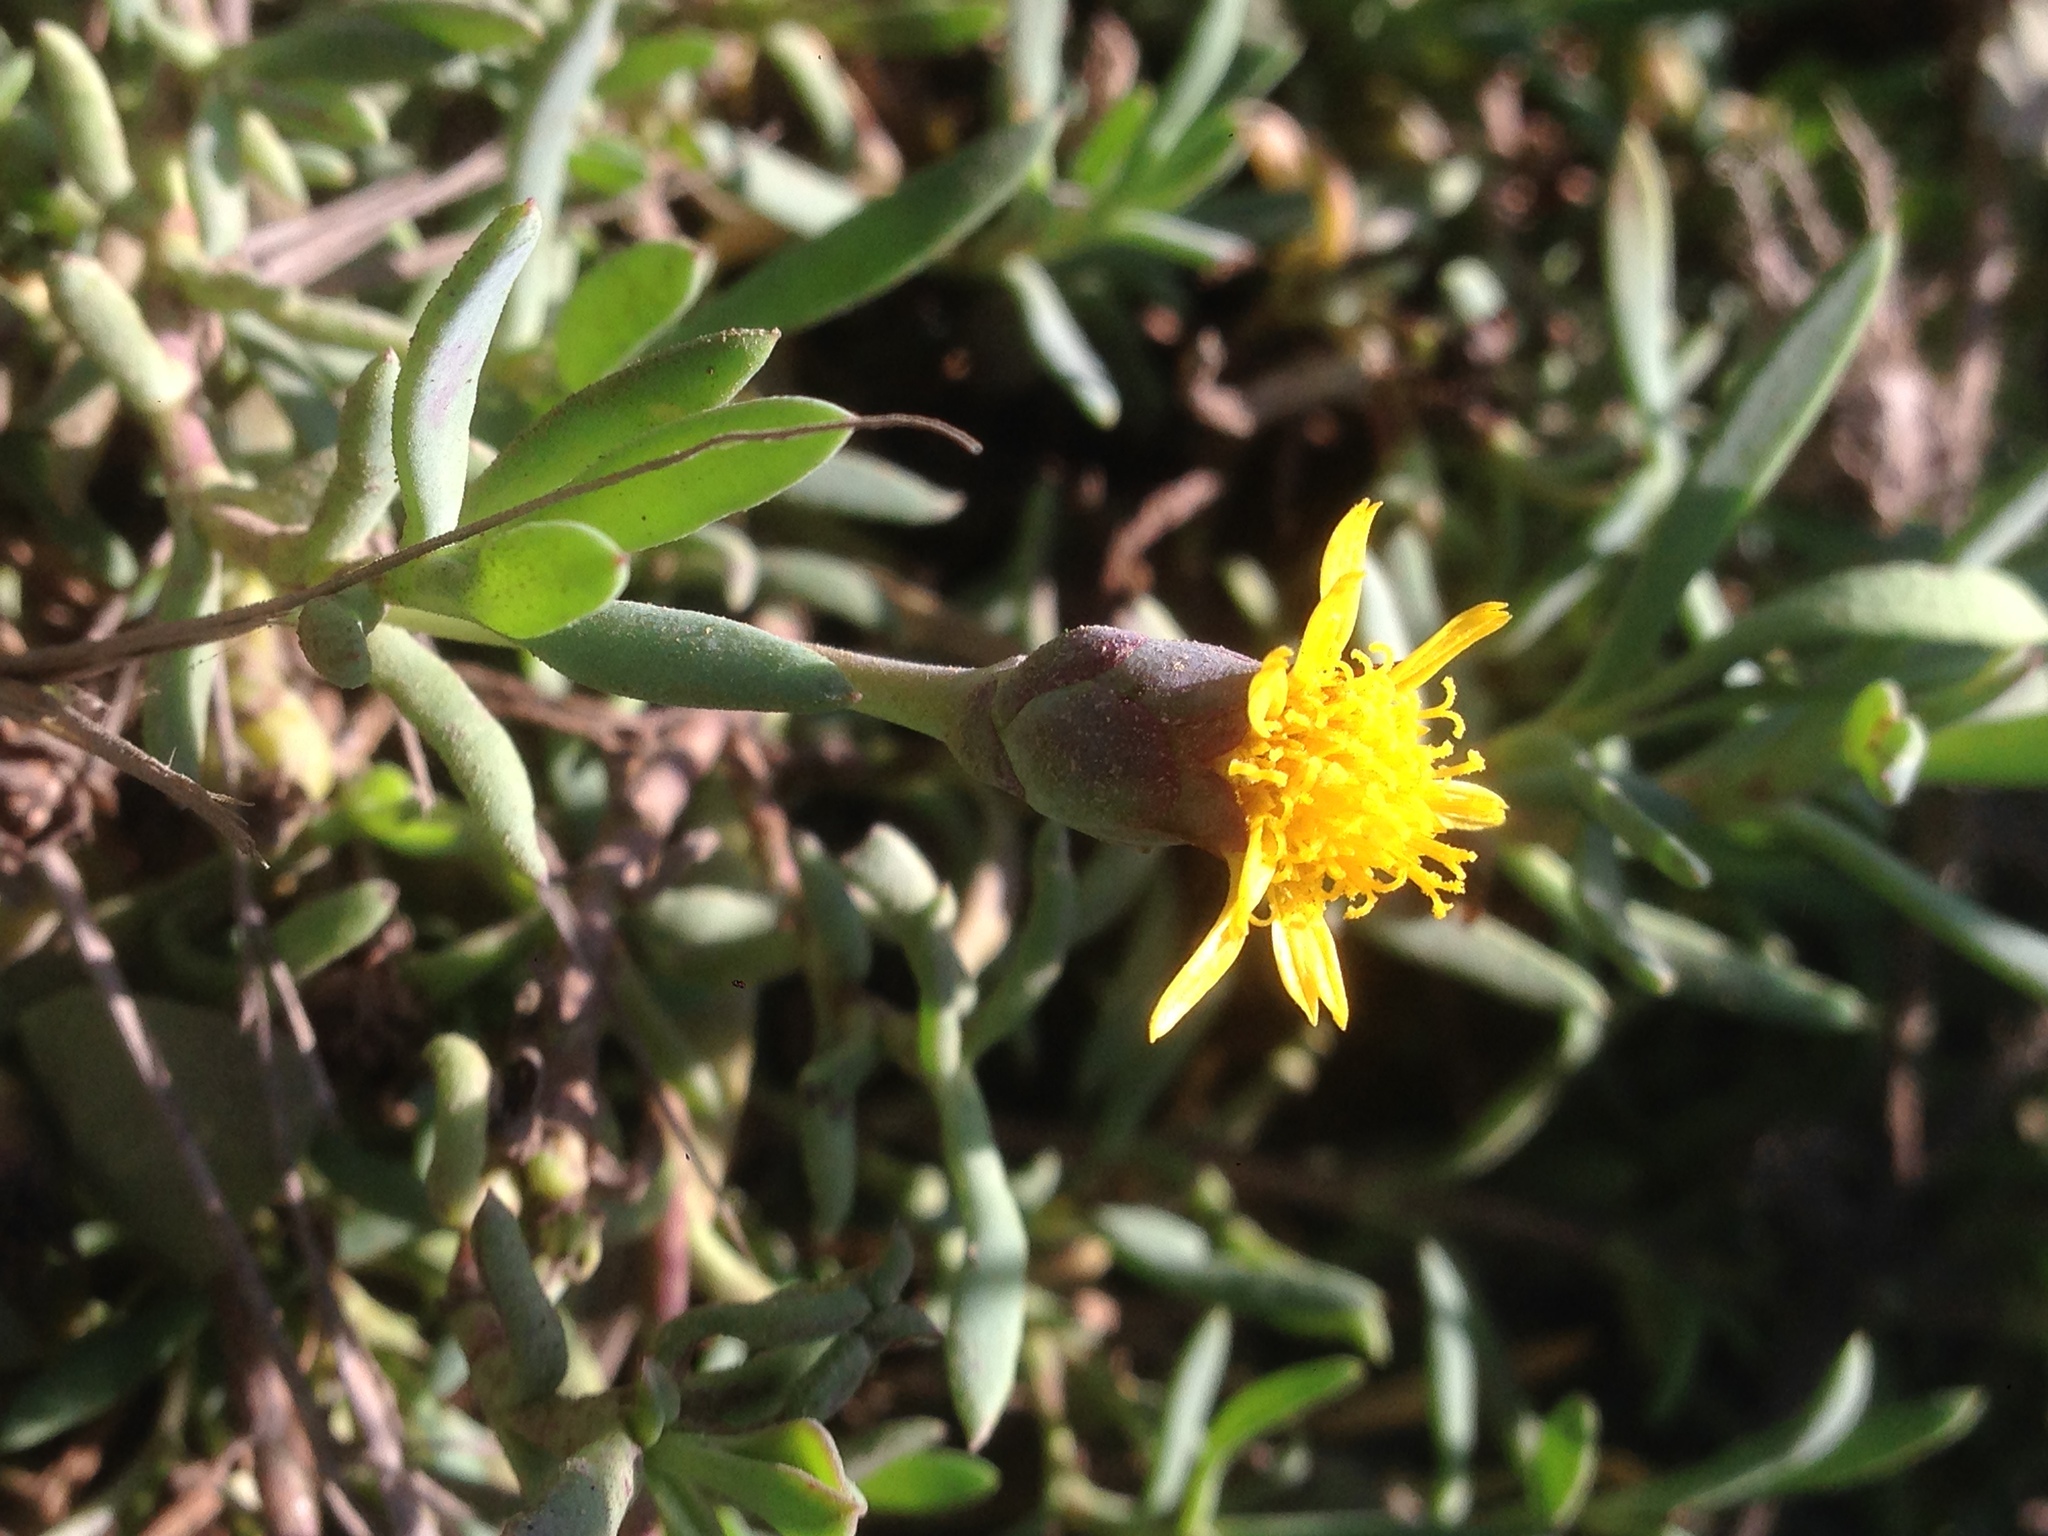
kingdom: Plantae
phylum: Tracheophyta
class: Magnoliopsida
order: Asterales
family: Asteraceae
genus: Jaumea
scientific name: Jaumea carnosa
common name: Fleshy jaumea
